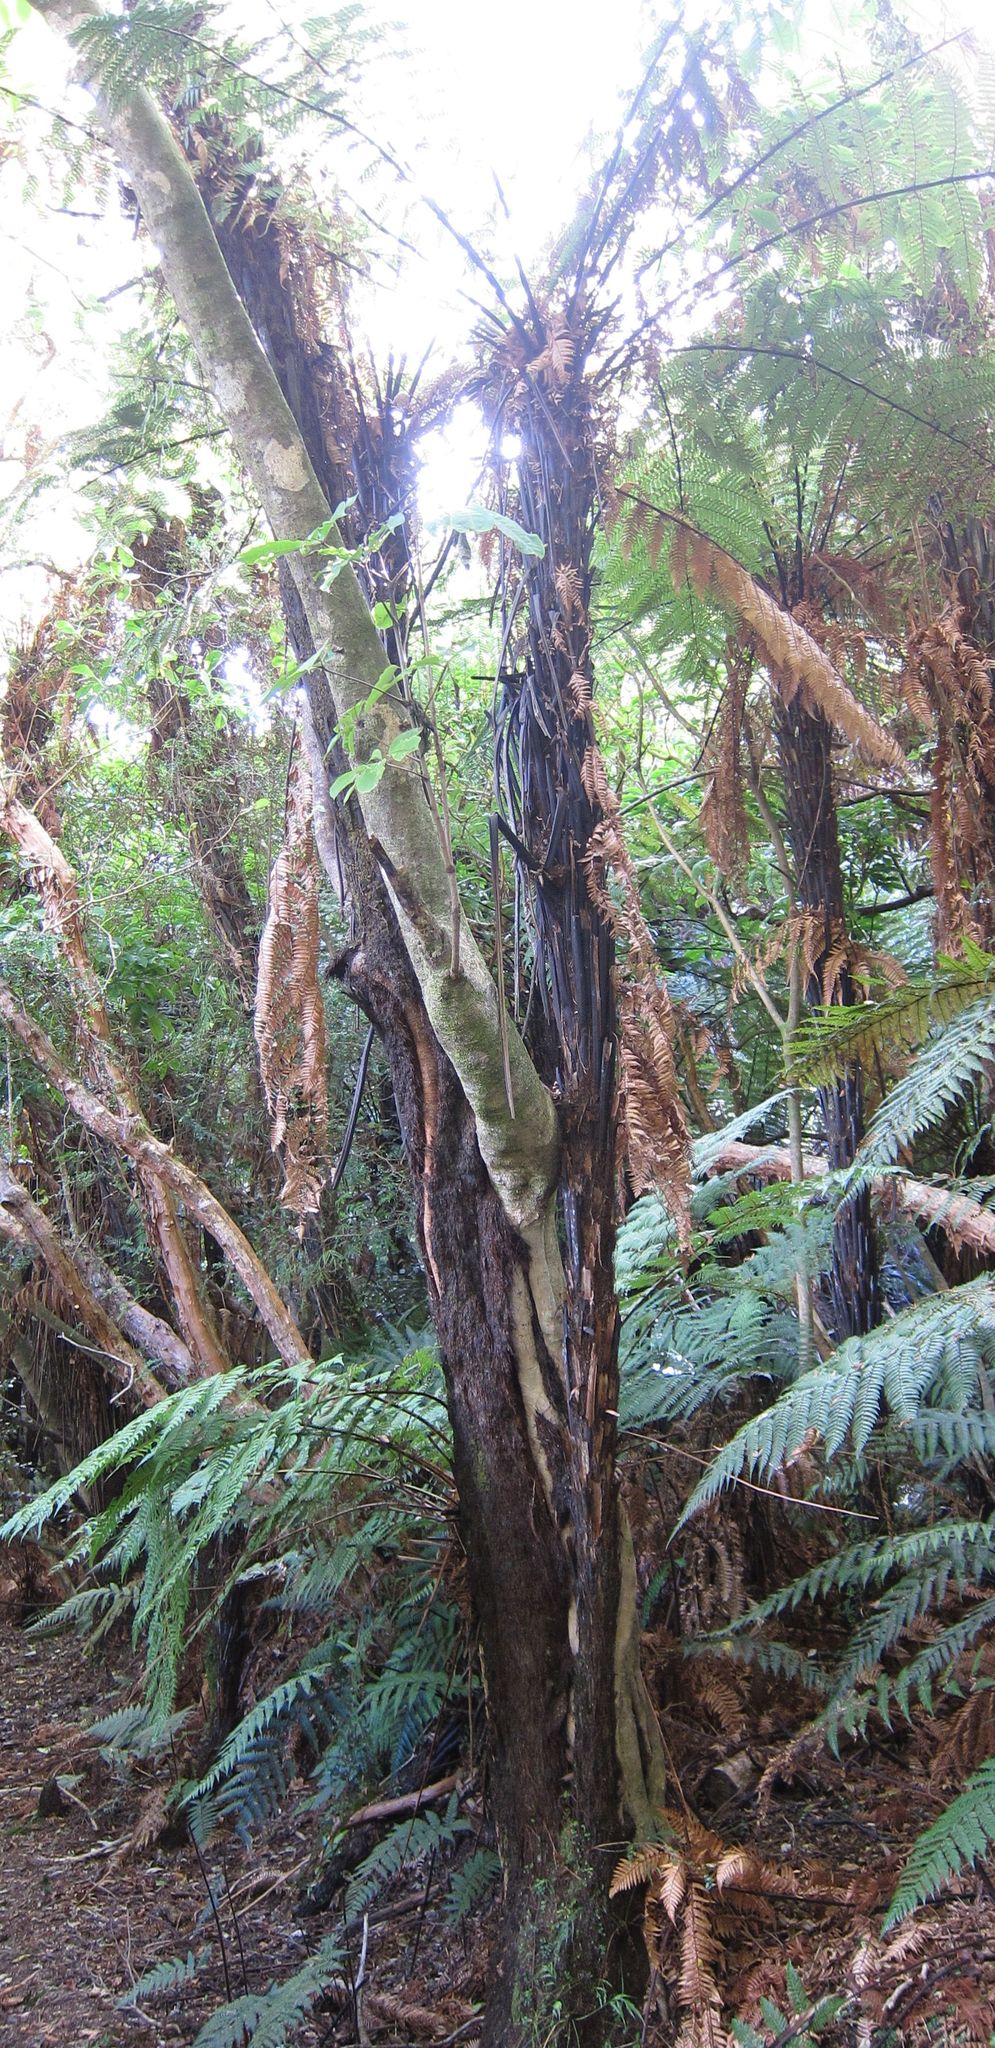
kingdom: Plantae
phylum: Tracheophyta
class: Magnoliopsida
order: Apiales
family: Araliaceae
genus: Neopanax
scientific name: Neopanax colensoi
